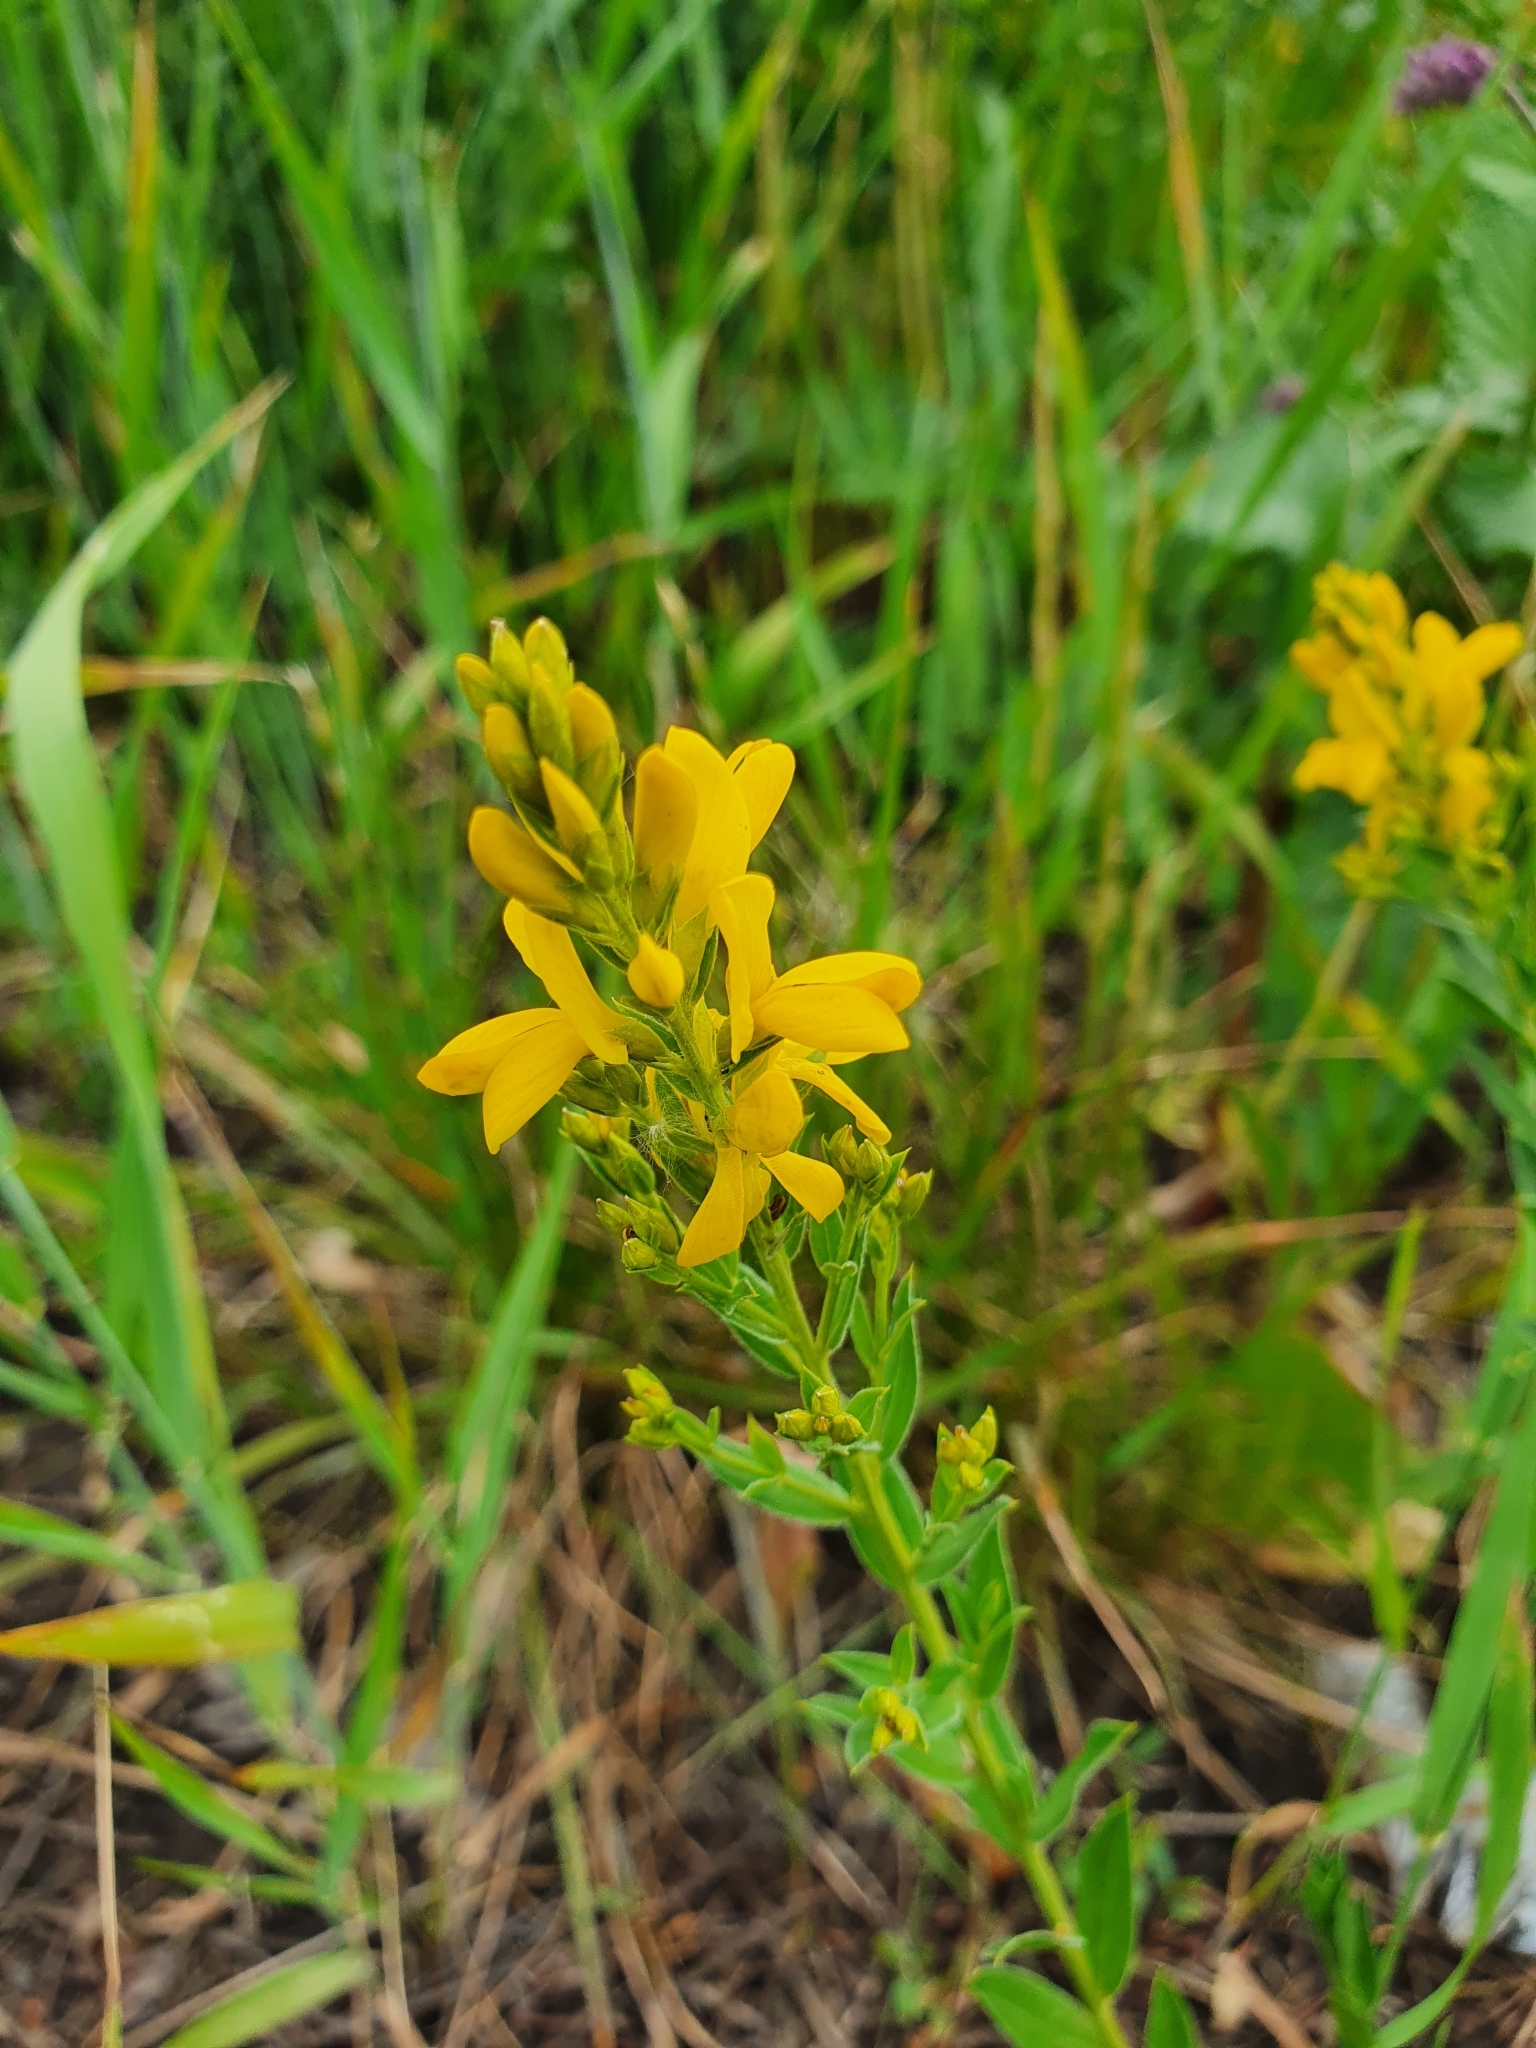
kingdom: Plantae
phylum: Tracheophyta
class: Magnoliopsida
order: Fabales
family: Fabaceae
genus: Genista
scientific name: Genista tinctoria
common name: Dyer's greenweed
